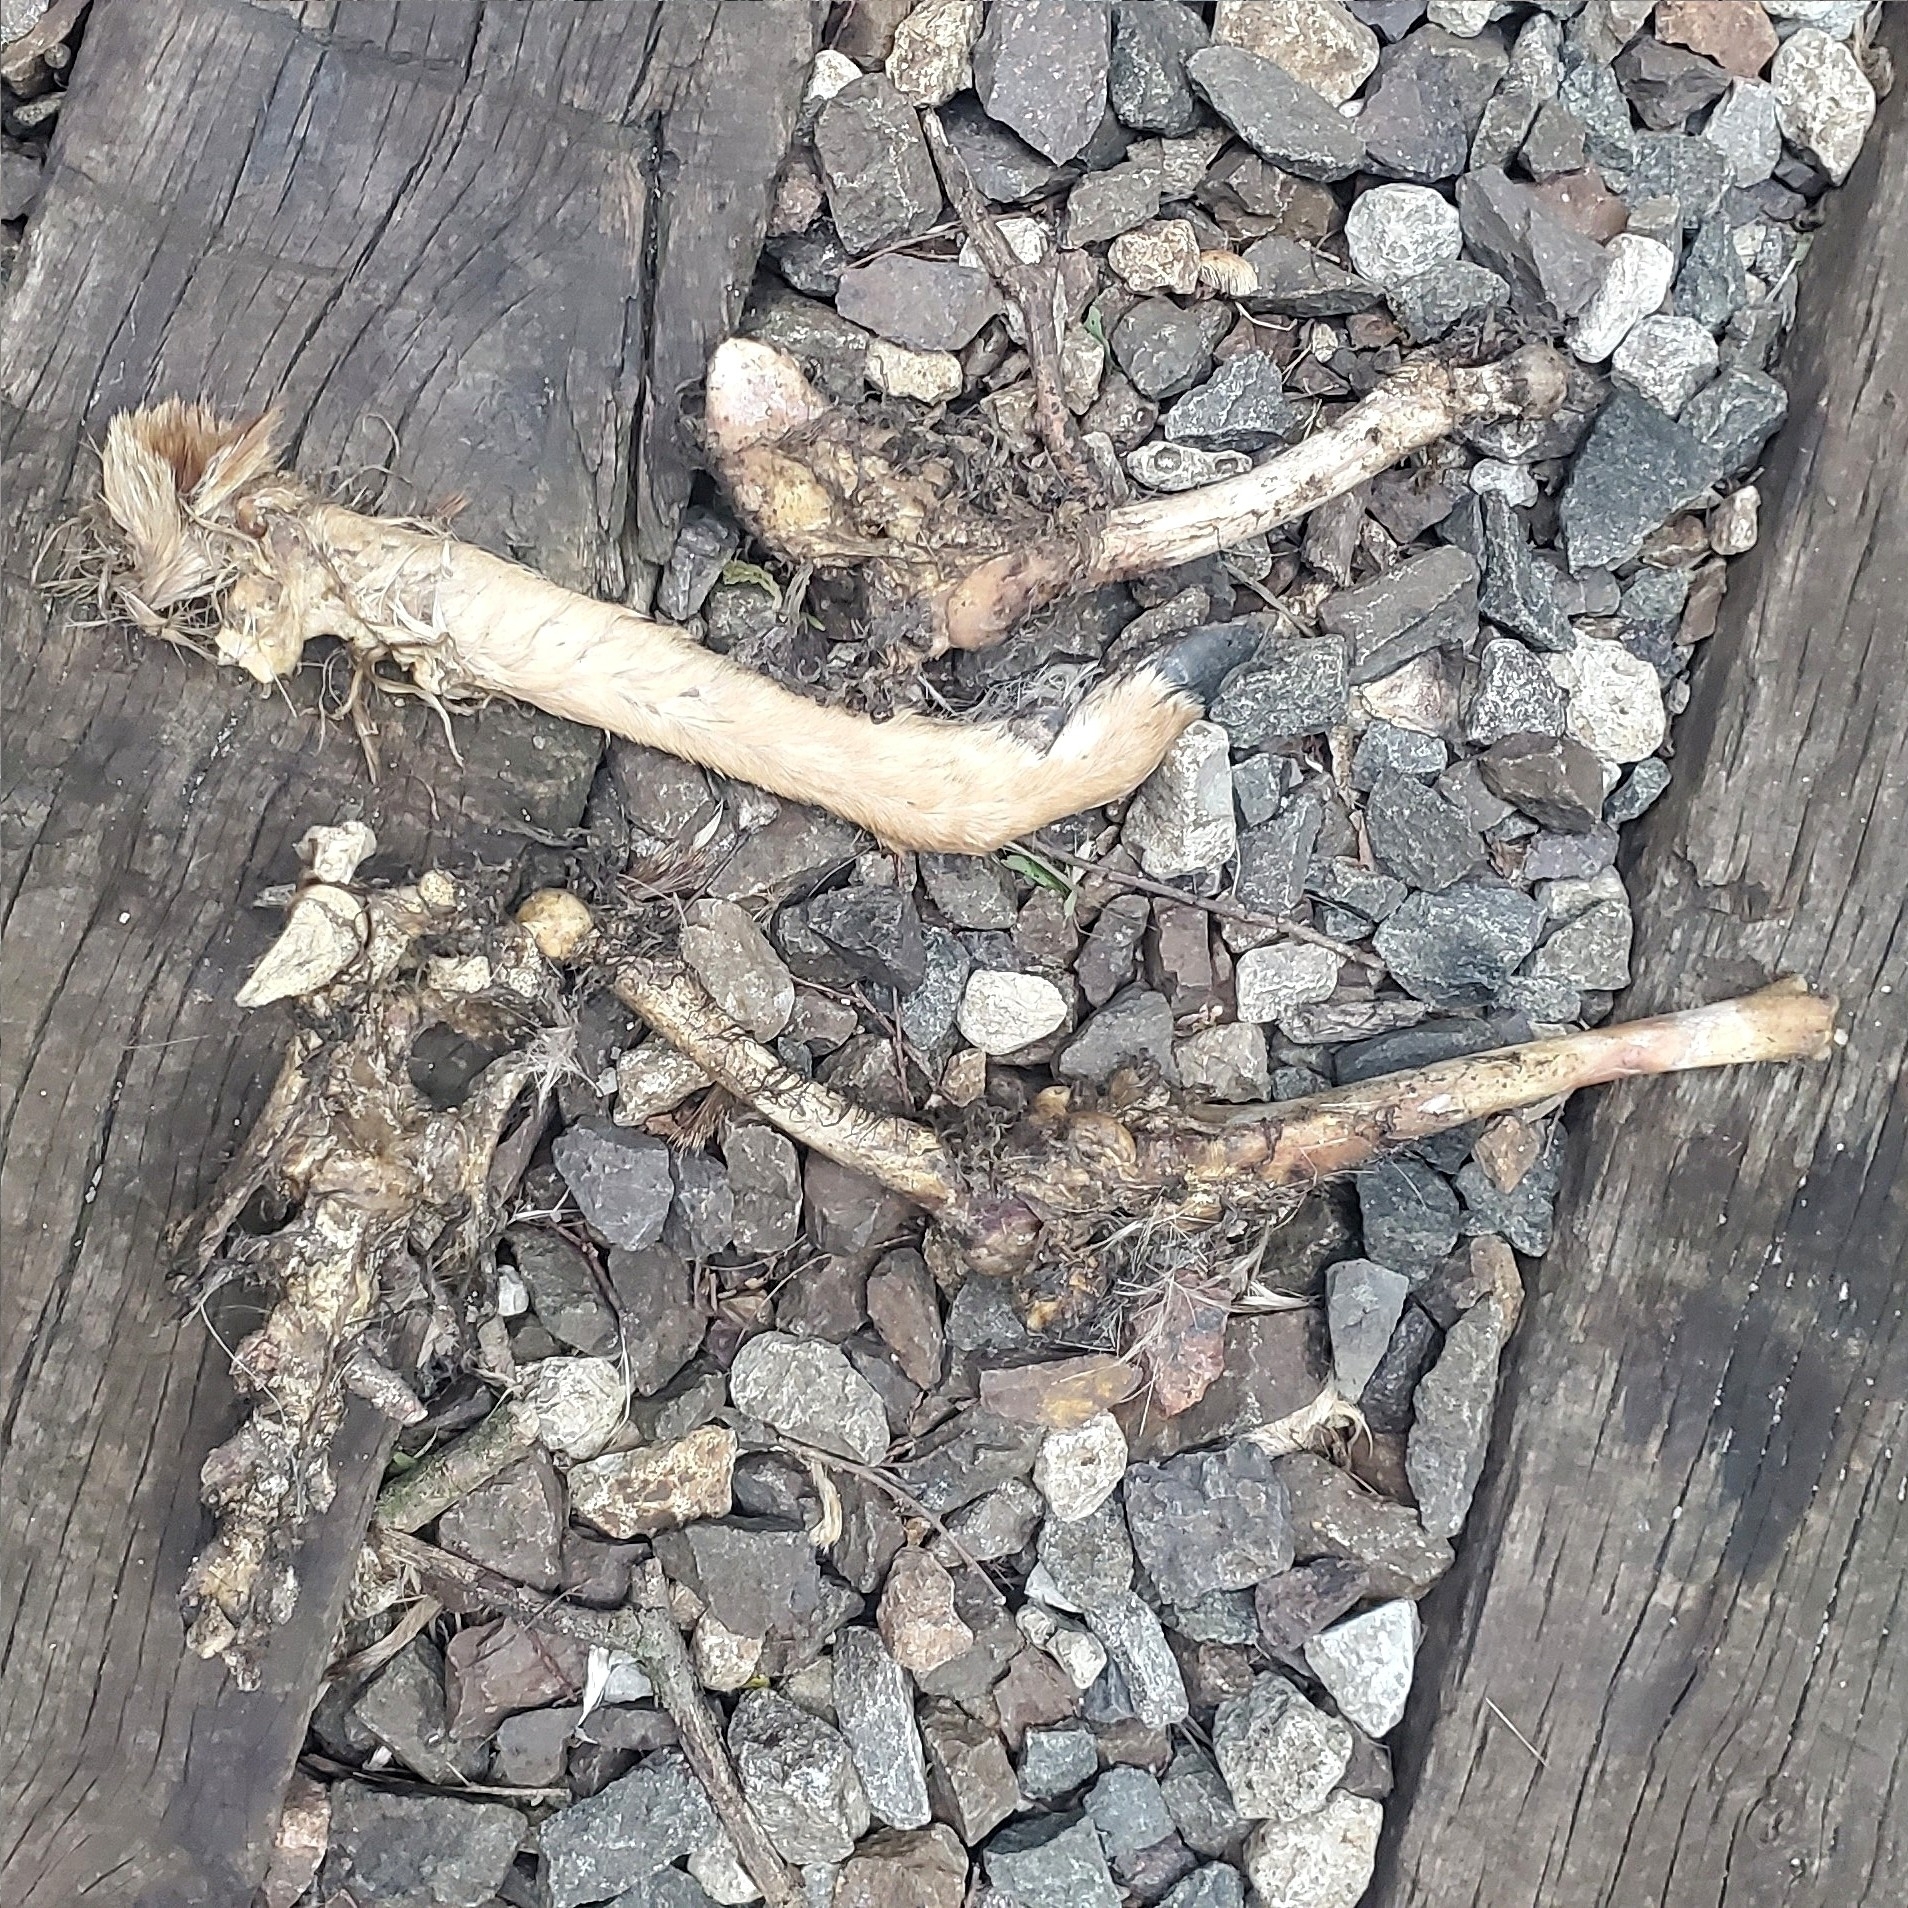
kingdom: Animalia
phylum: Chordata
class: Mammalia
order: Artiodactyla
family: Cervidae
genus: Odocoileus
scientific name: Odocoileus virginianus
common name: White-tailed deer
